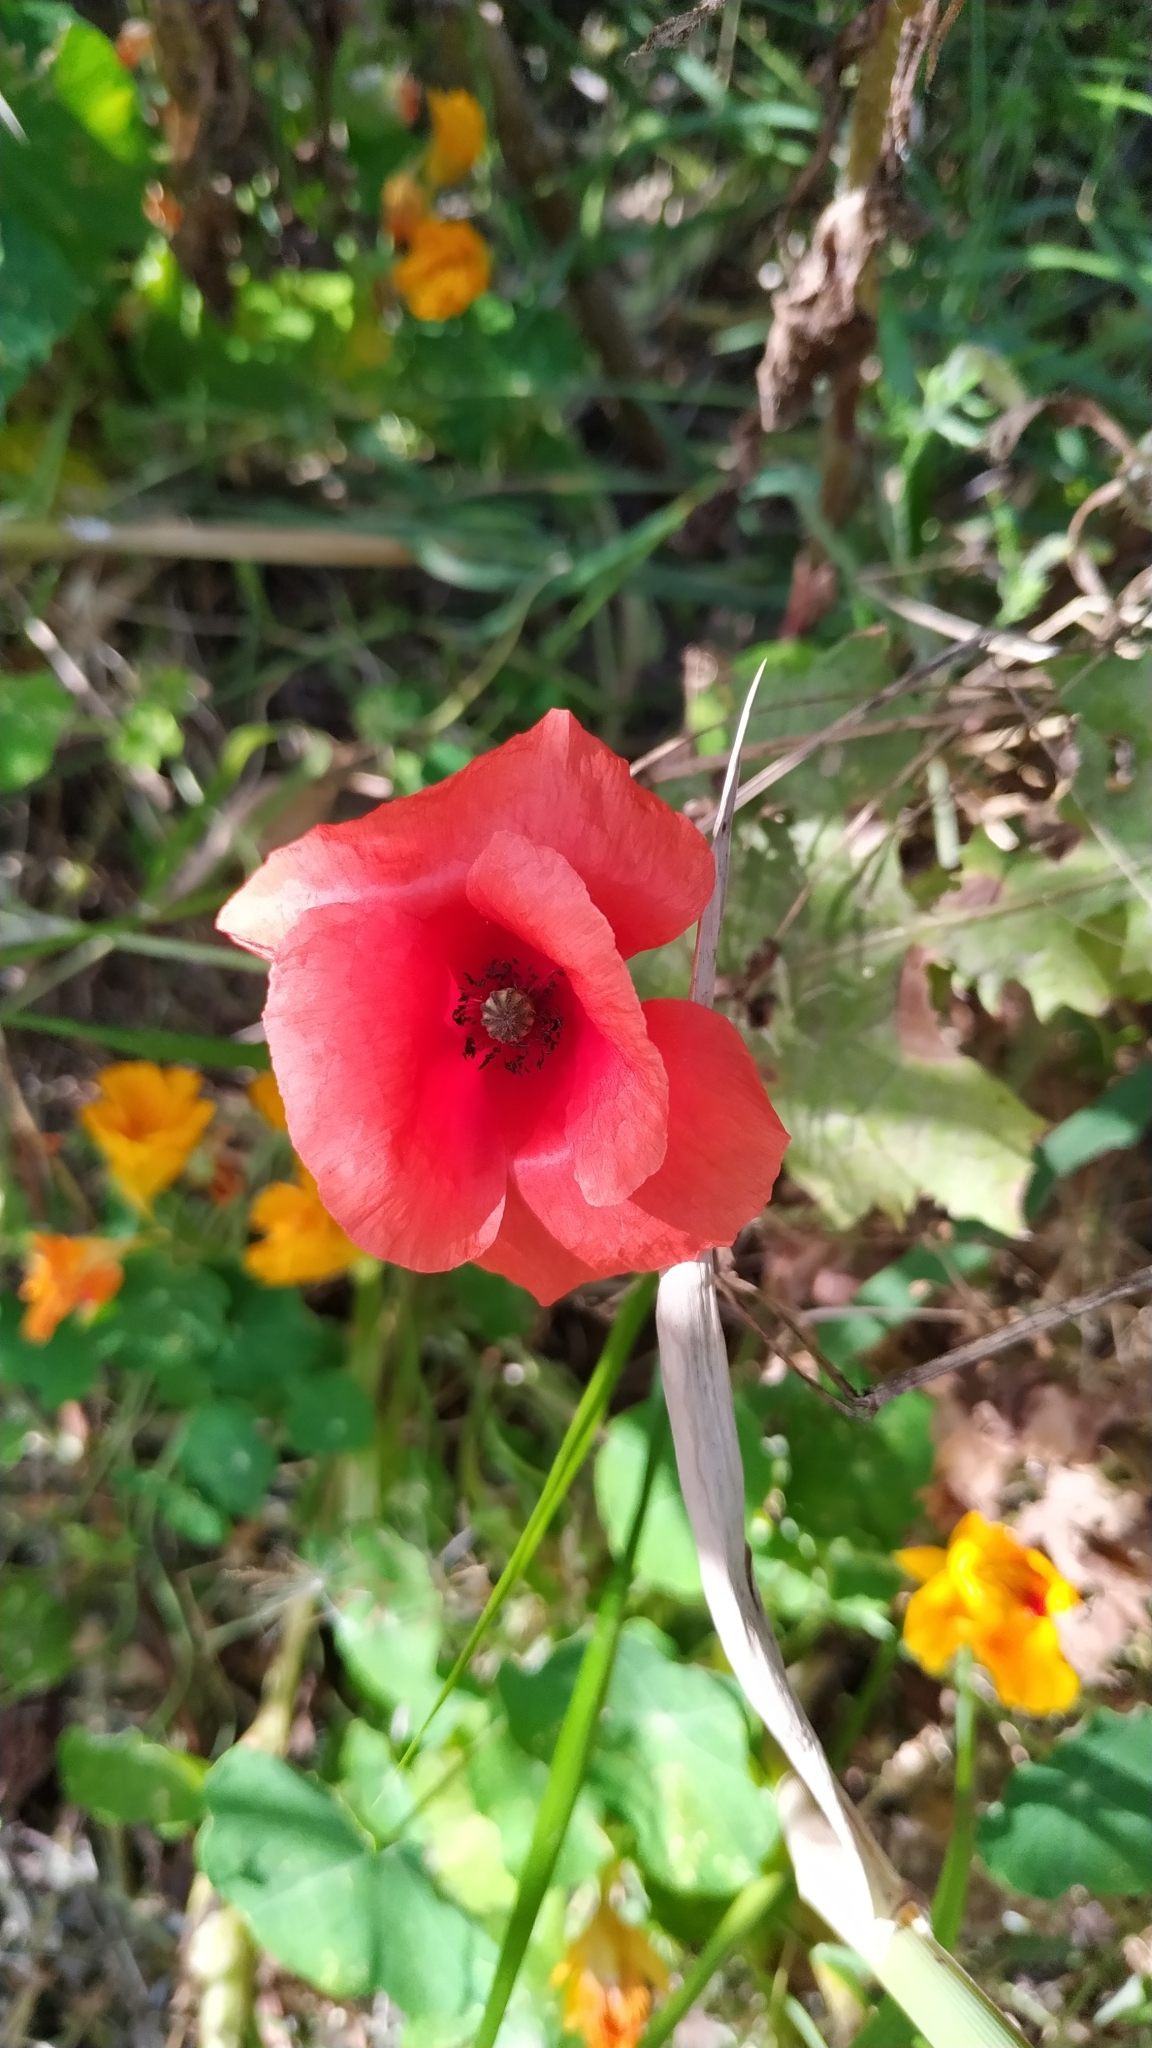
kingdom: Plantae
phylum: Tracheophyta
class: Magnoliopsida
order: Ranunculales
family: Papaveraceae
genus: Papaver
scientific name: Papaver rhoeas
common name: Corn poppy
